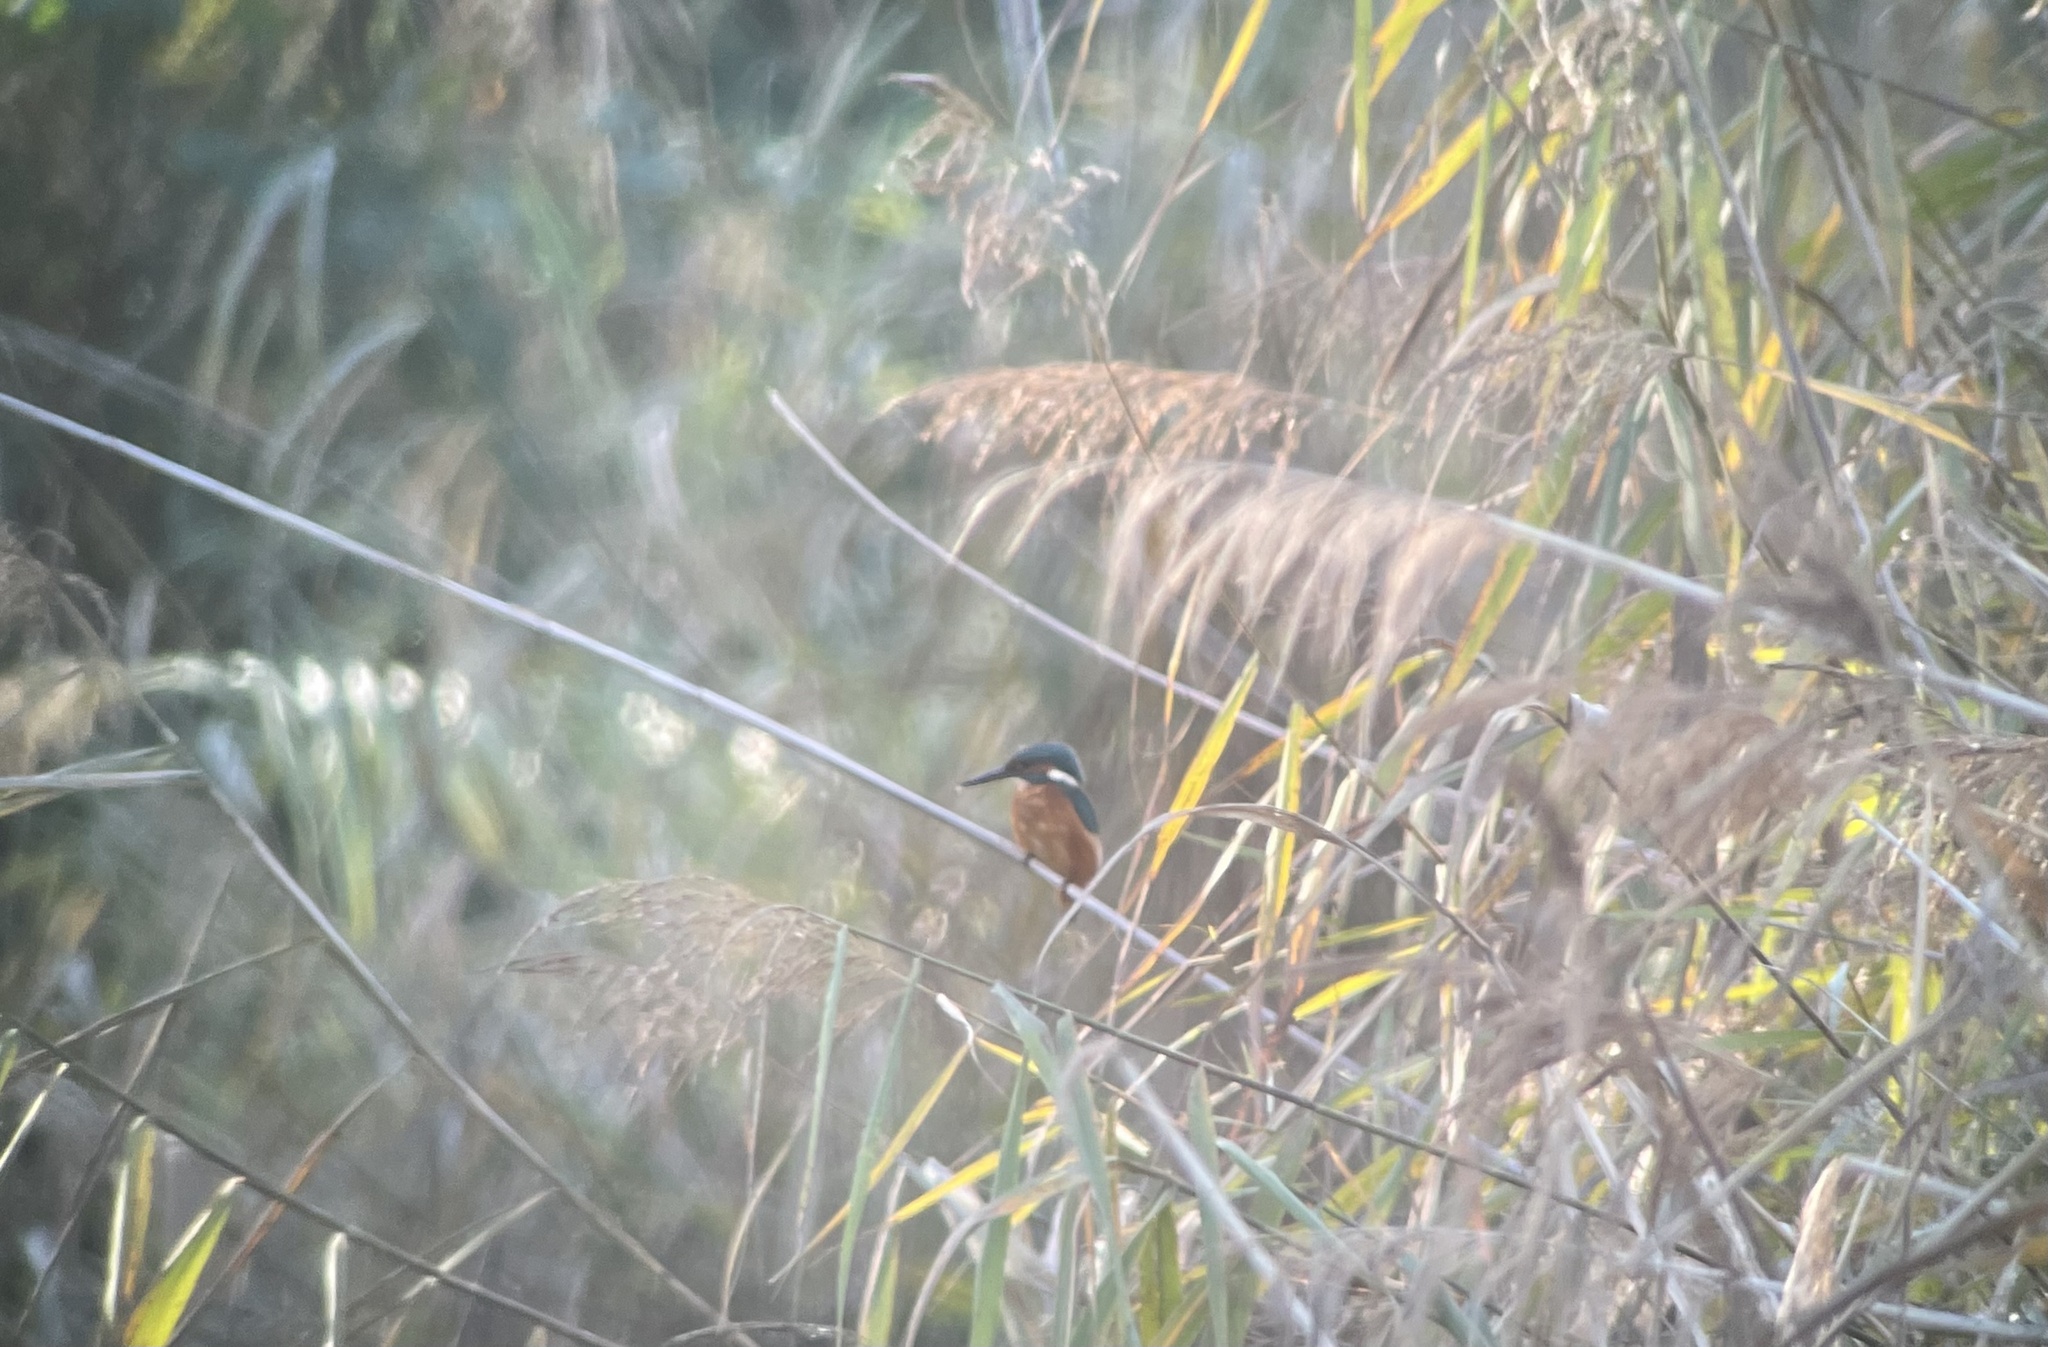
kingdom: Animalia
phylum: Chordata
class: Aves
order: Coraciiformes
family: Alcedinidae
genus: Alcedo
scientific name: Alcedo atthis
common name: Common kingfisher
